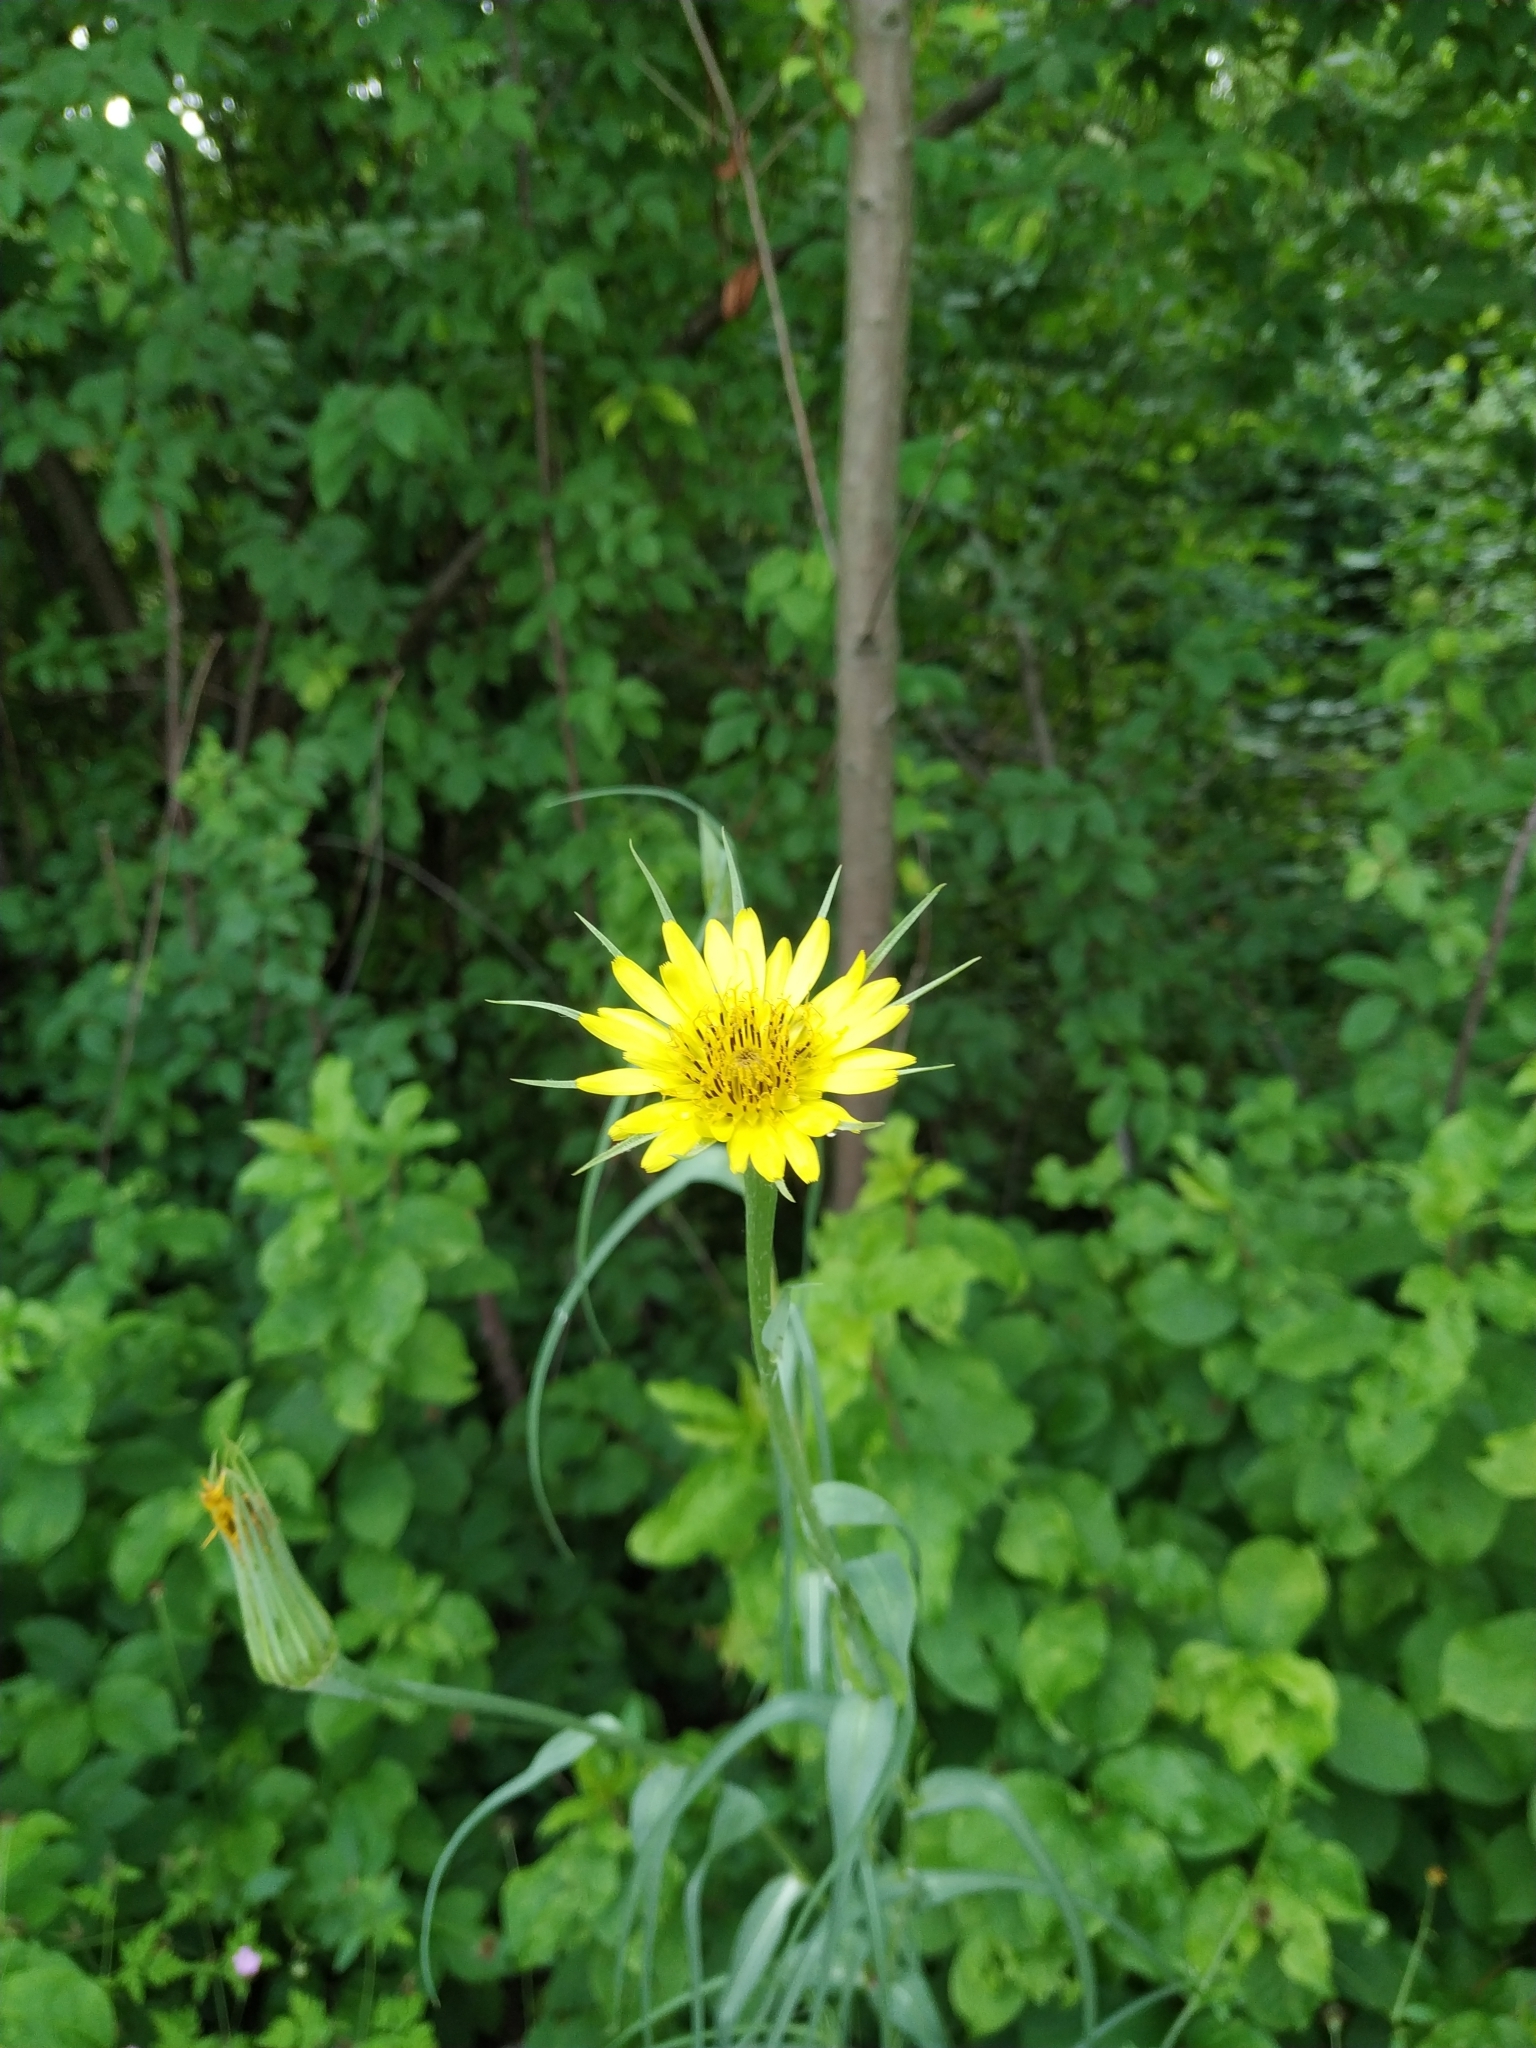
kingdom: Plantae
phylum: Tracheophyta
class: Magnoliopsida
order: Asterales
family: Asteraceae
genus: Tragopogon
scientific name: Tragopogon dubius
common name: Yellow salsify
